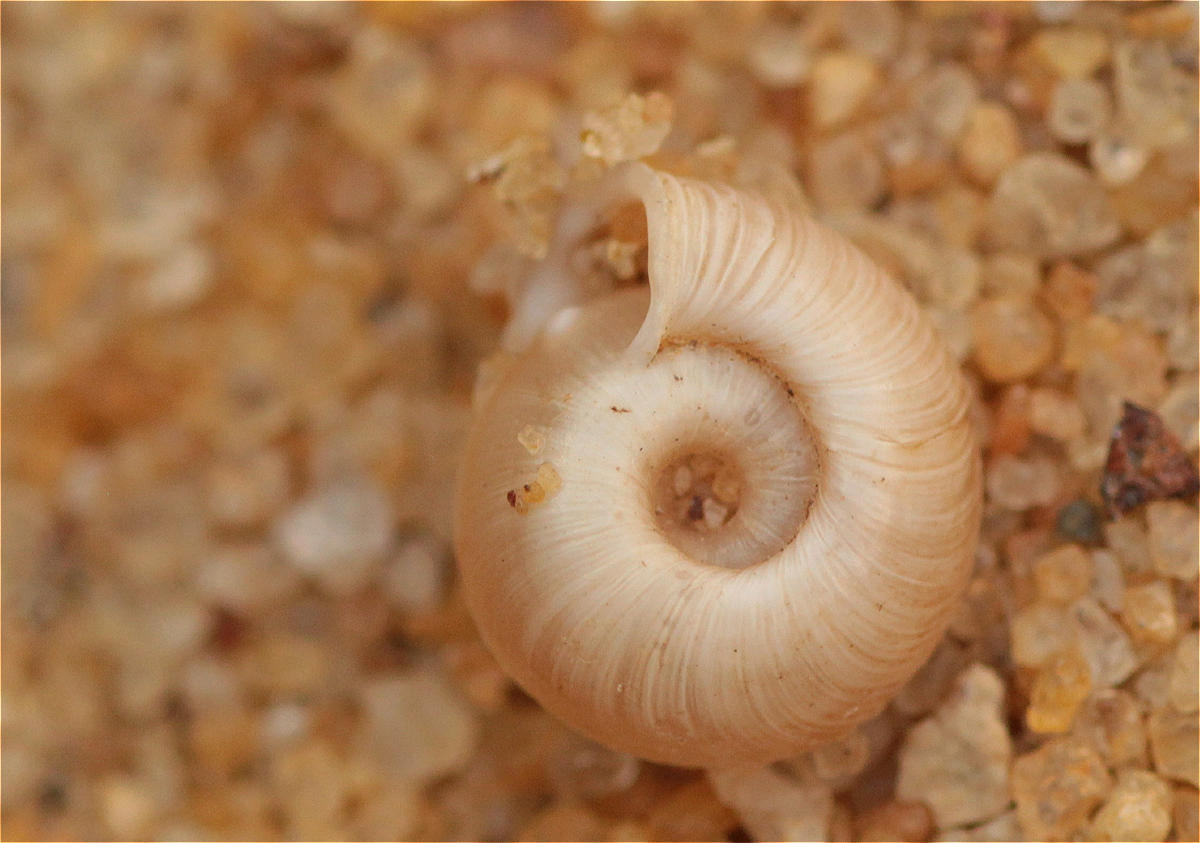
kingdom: Animalia
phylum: Mollusca
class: Gastropoda
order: Stylommatophora
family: Polygyridae
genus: Polygyra
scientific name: Polygyra cereolus
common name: Southern flatcone snail
